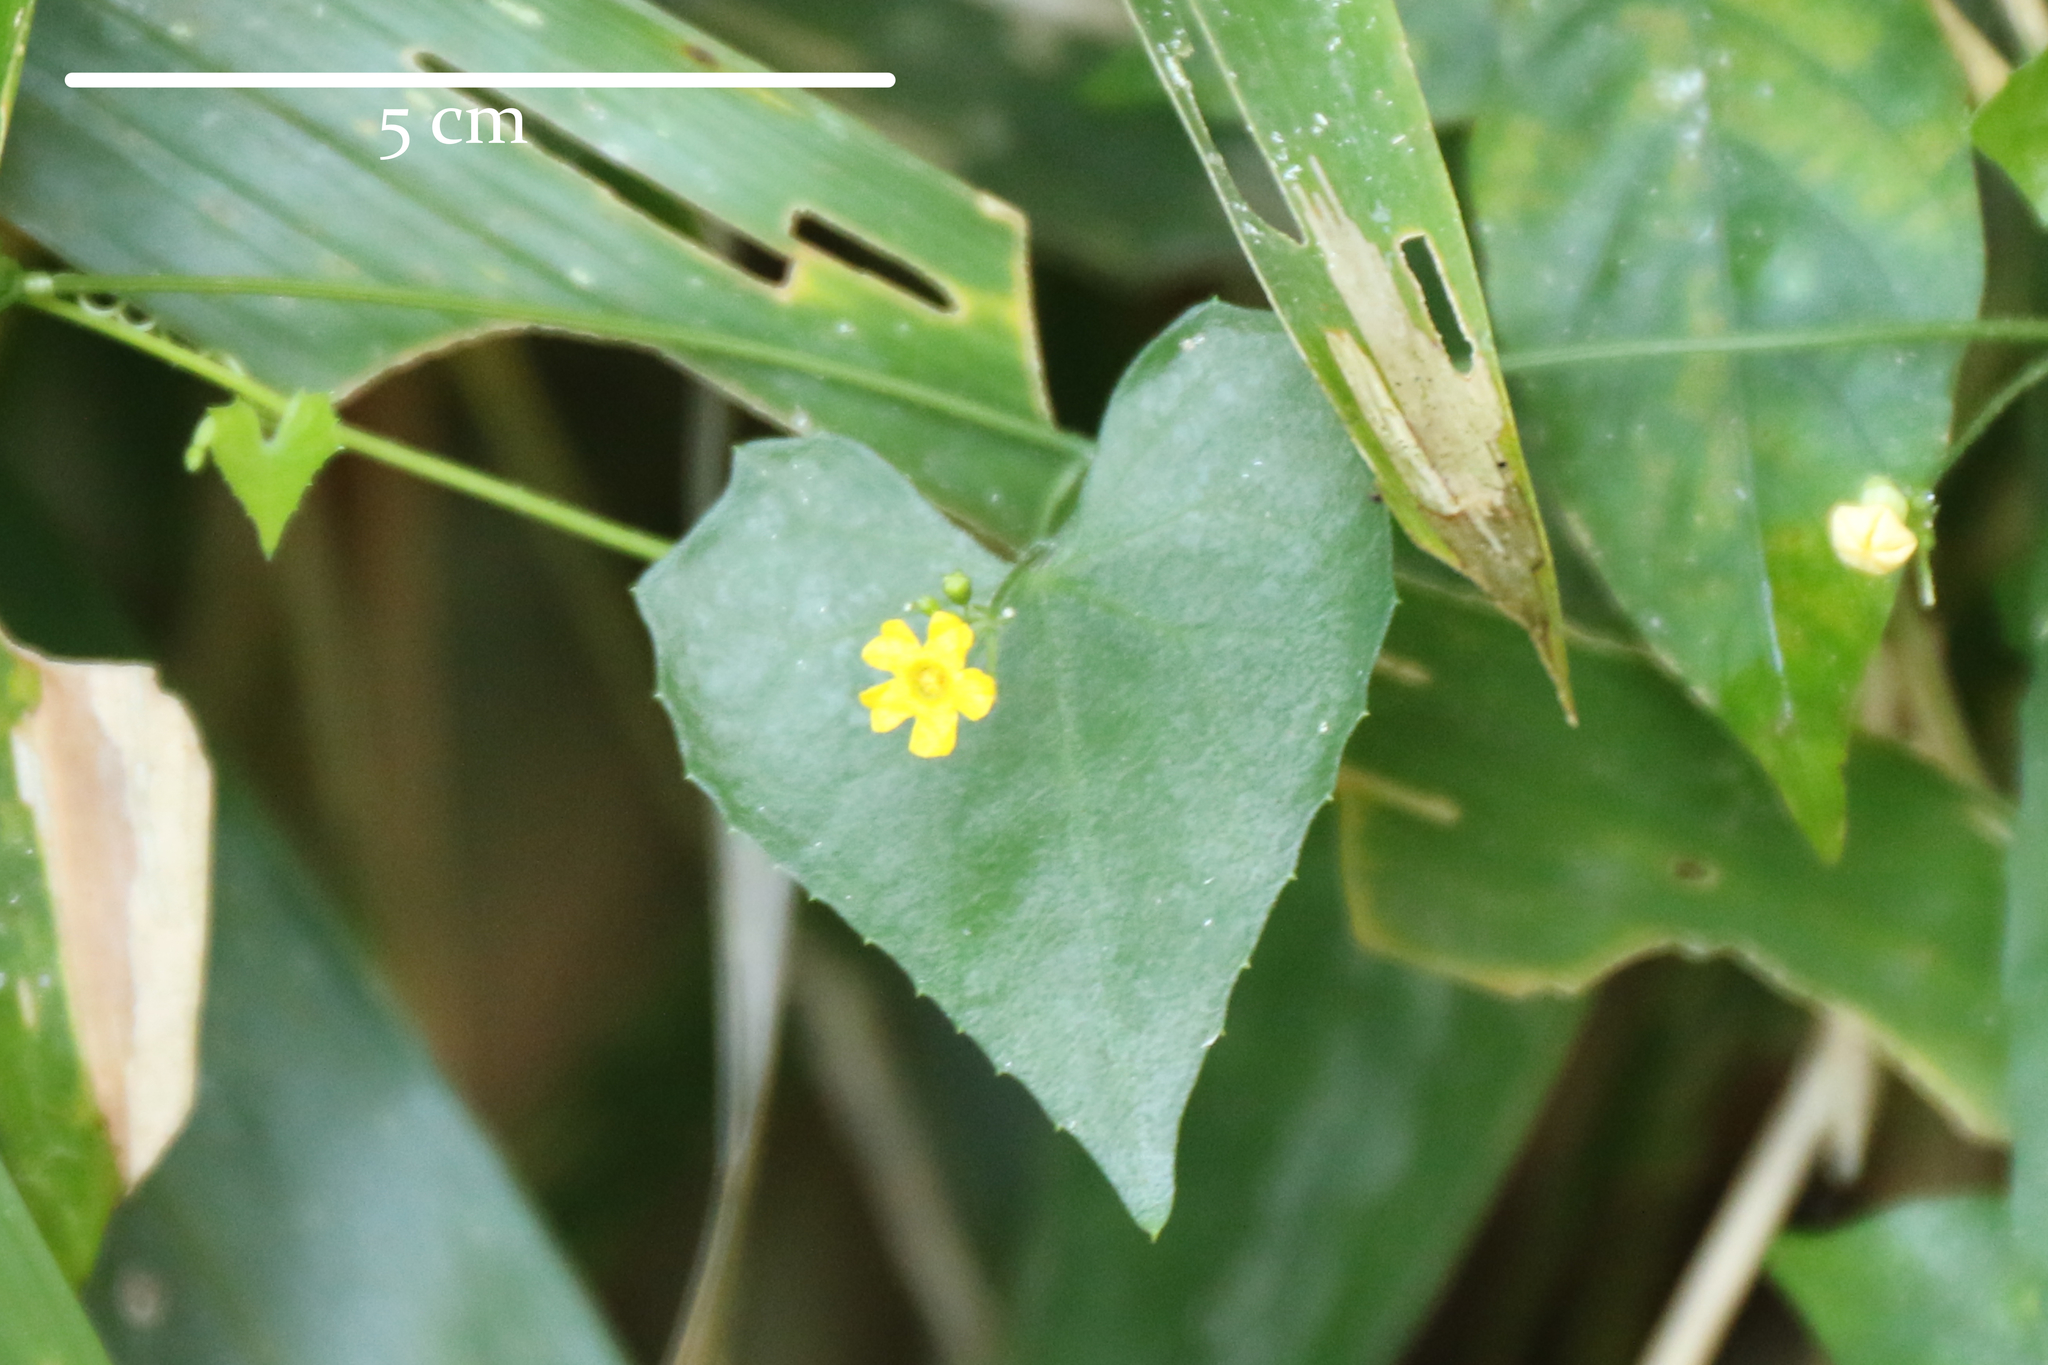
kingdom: Plantae
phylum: Tracheophyta
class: Magnoliopsida
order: Cucurbitales
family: Cucurbitaceae
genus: Melothria
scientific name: Melothria pendula
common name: Creeping-cucumber
